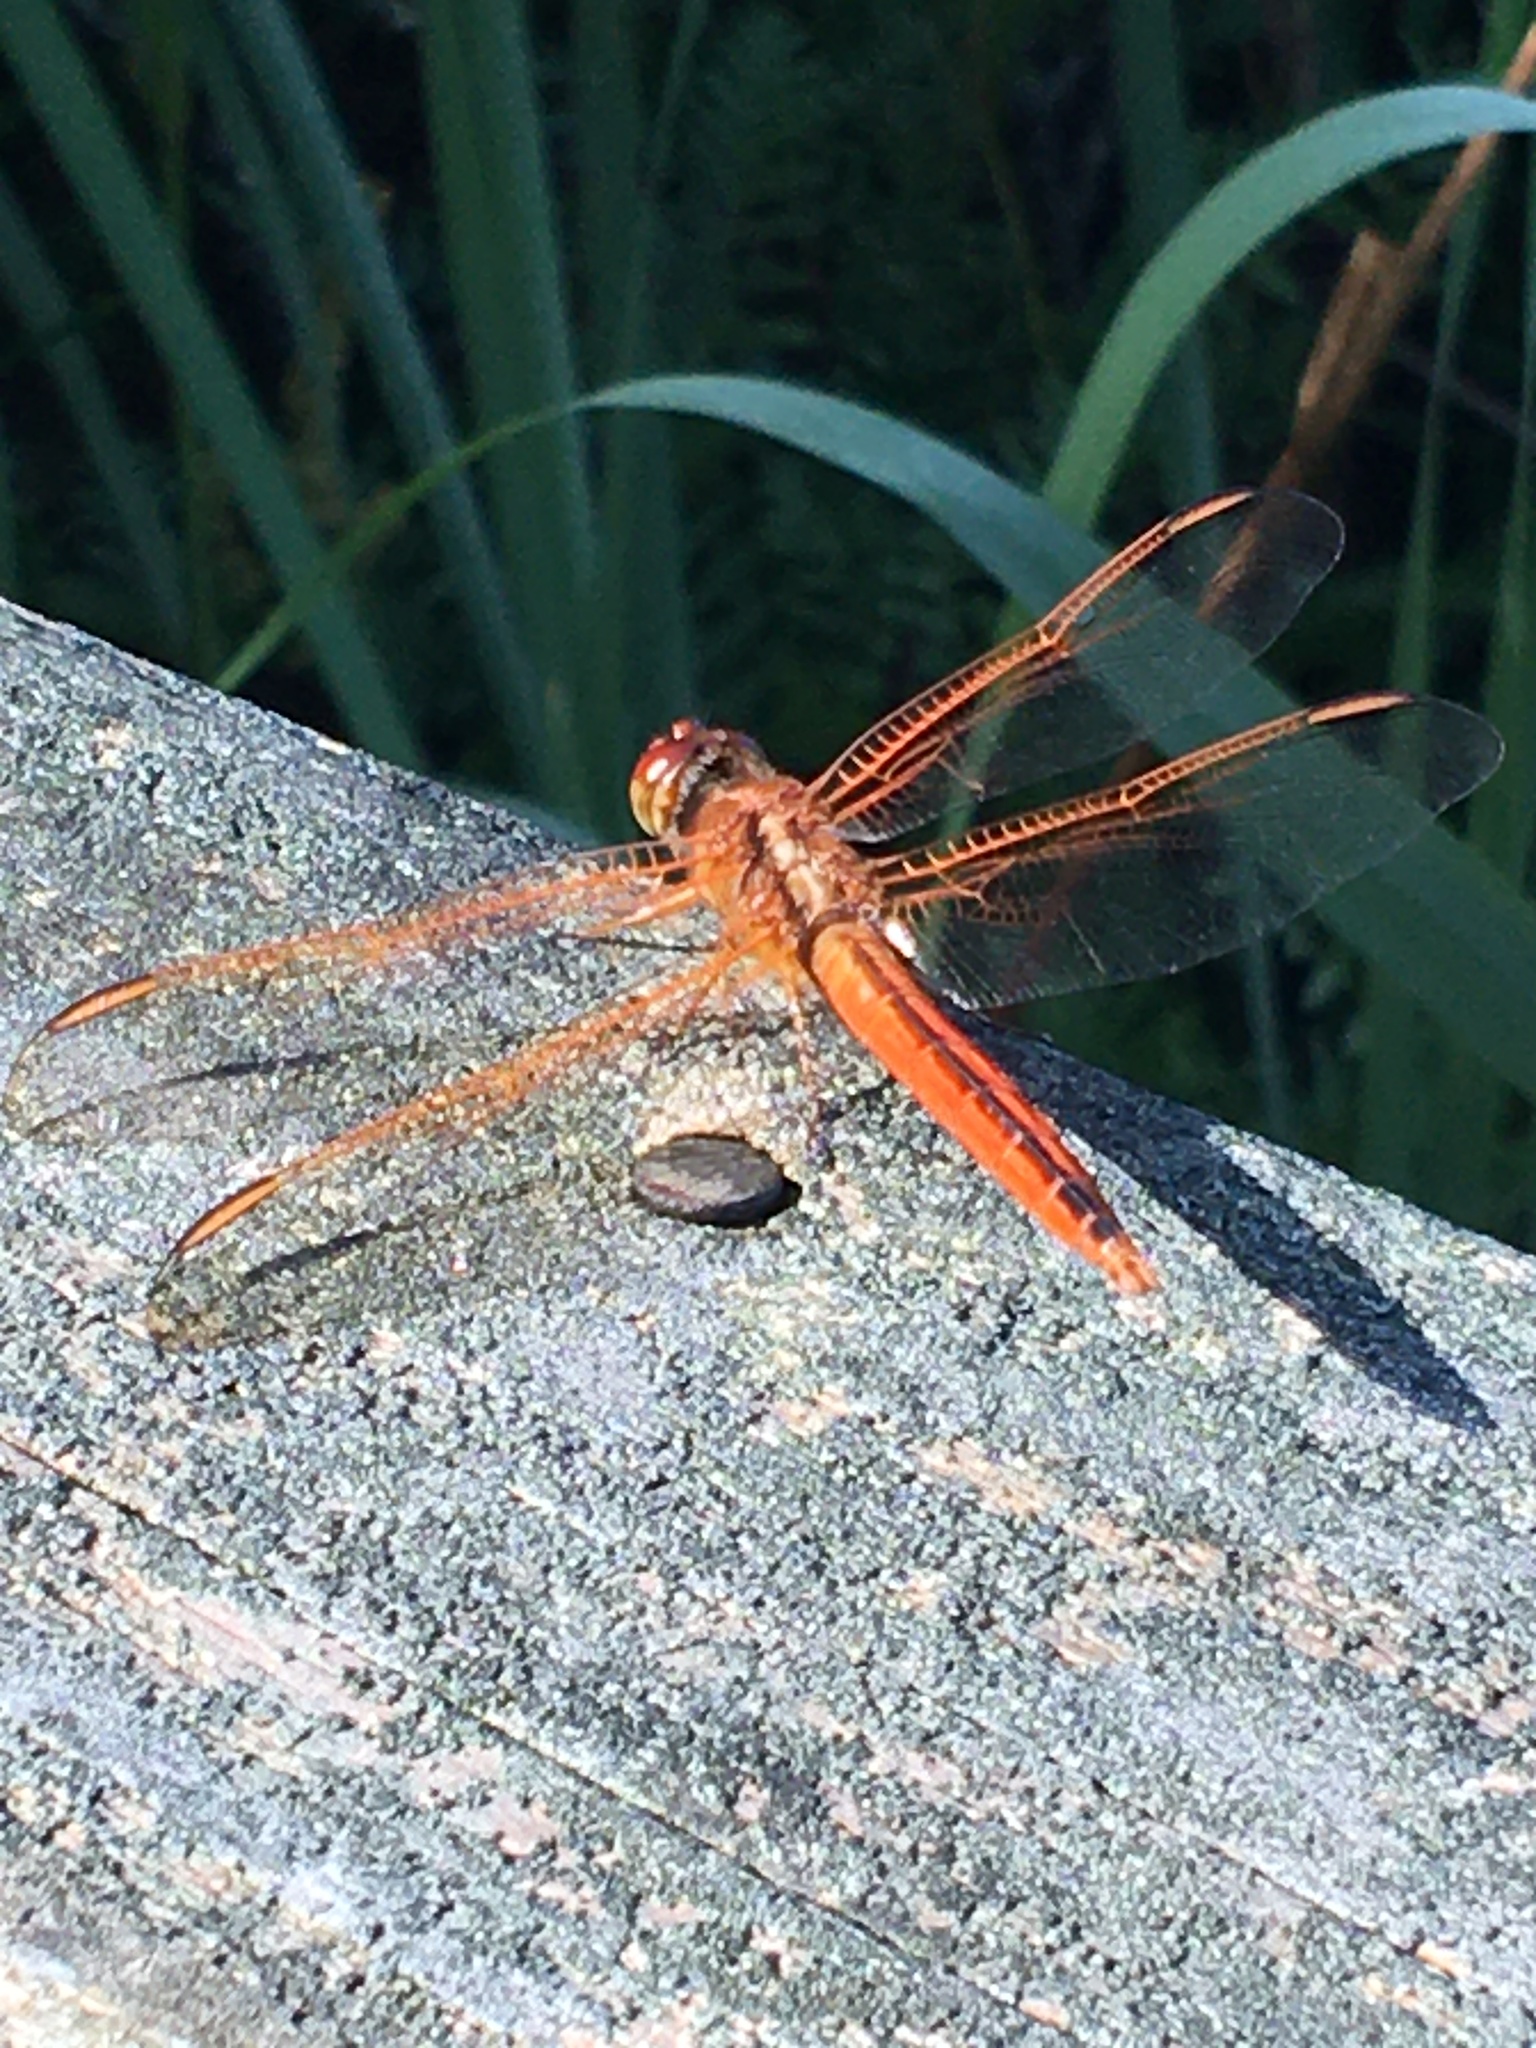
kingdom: Animalia
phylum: Arthropoda
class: Insecta
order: Odonata
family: Libellulidae
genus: Libellula
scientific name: Libellula needhami
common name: Needham's skimmer
